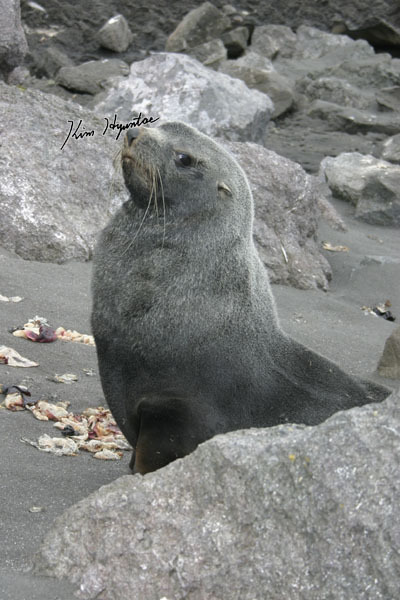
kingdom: Animalia
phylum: Chordata
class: Mammalia
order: Carnivora
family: Otariidae
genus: Arctocephalus
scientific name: Arctocephalus gazella
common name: Antarctic fur seal
